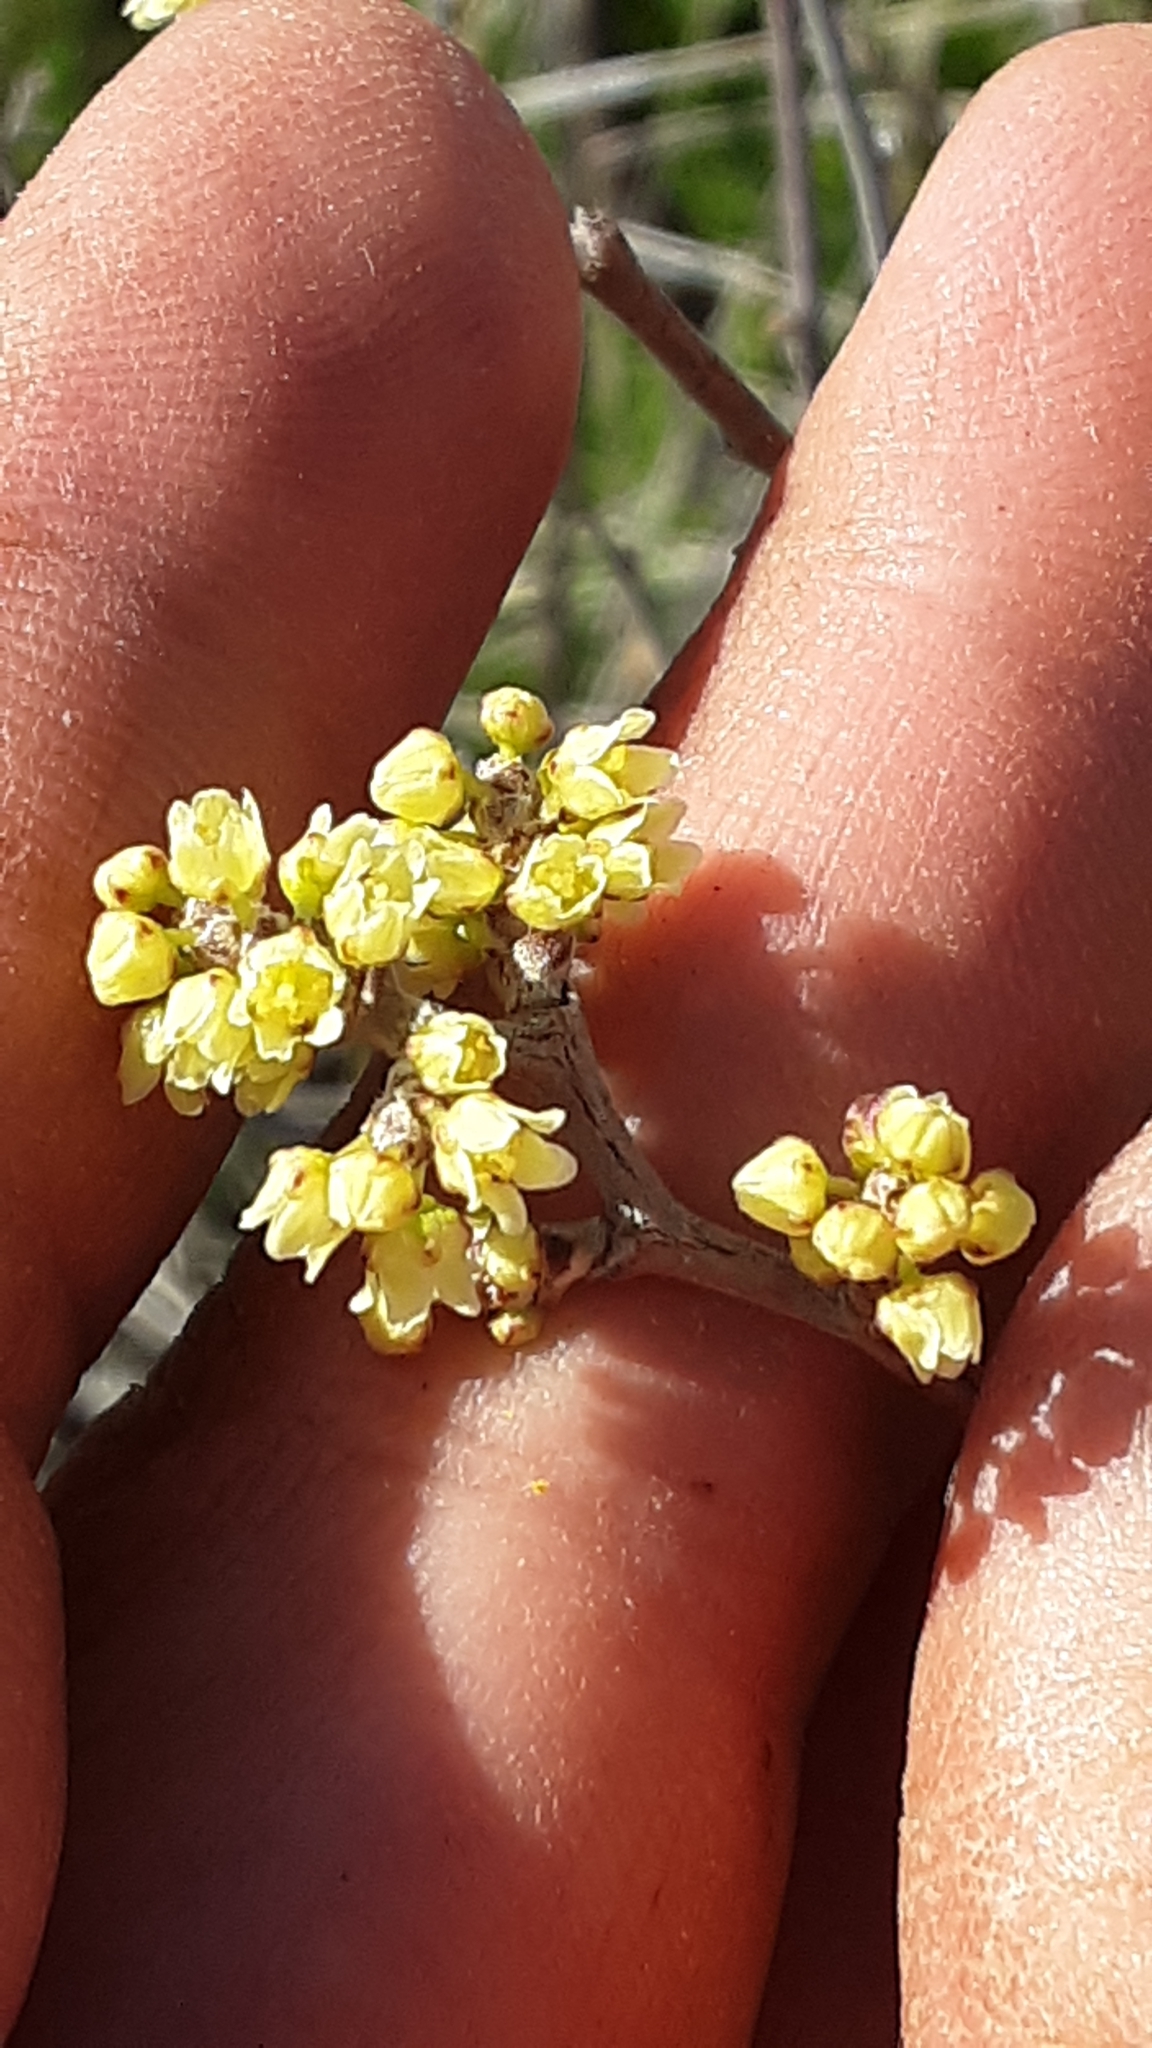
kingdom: Plantae
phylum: Tracheophyta
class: Magnoliopsida
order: Sapindales
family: Anacardiaceae
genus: Rhus
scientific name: Rhus aromatica
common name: Aromatic sumac
